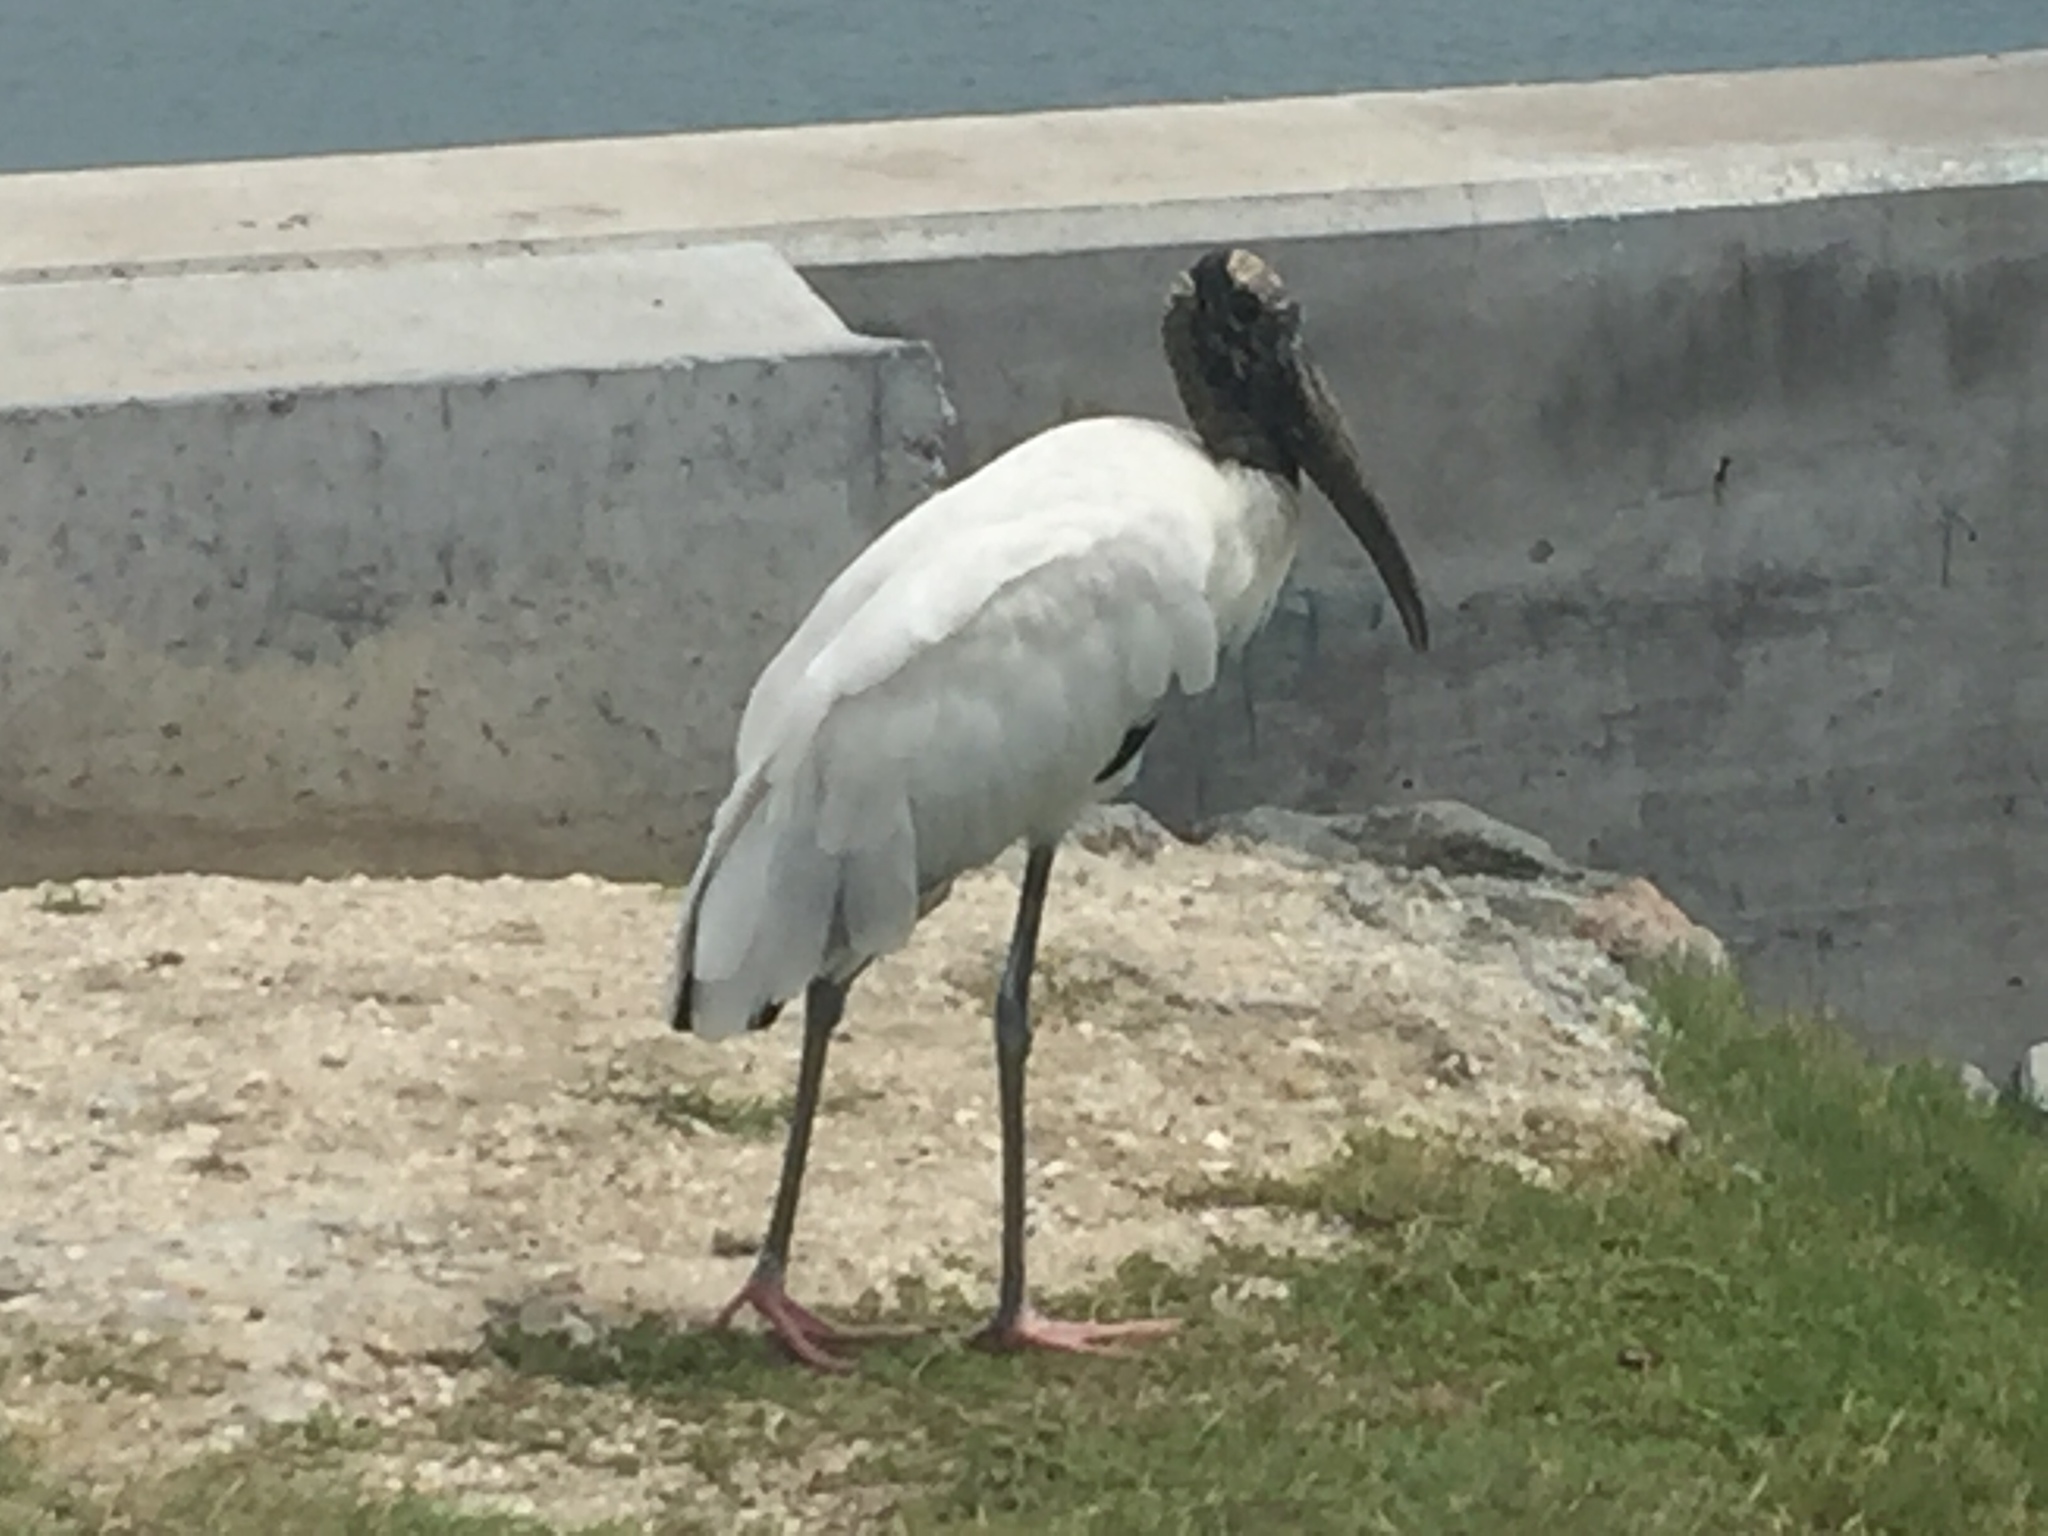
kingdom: Animalia
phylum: Chordata
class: Aves
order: Ciconiiformes
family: Ciconiidae
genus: Mycteria
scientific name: Mycteria americana
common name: Wood stork
